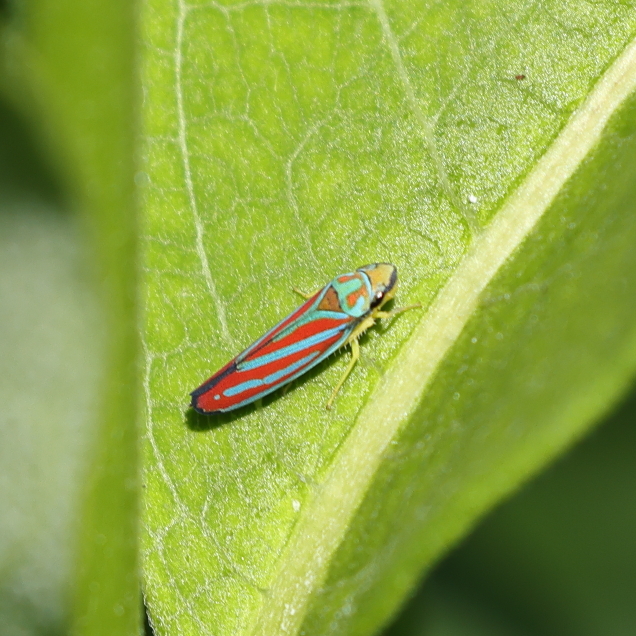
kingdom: Animalia
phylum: Arthropoda
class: Insecta
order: Hemiptera
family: Cicadellidae
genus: Graphocephala
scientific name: Graphocephala coccinea
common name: Candy-striped leafhopper
